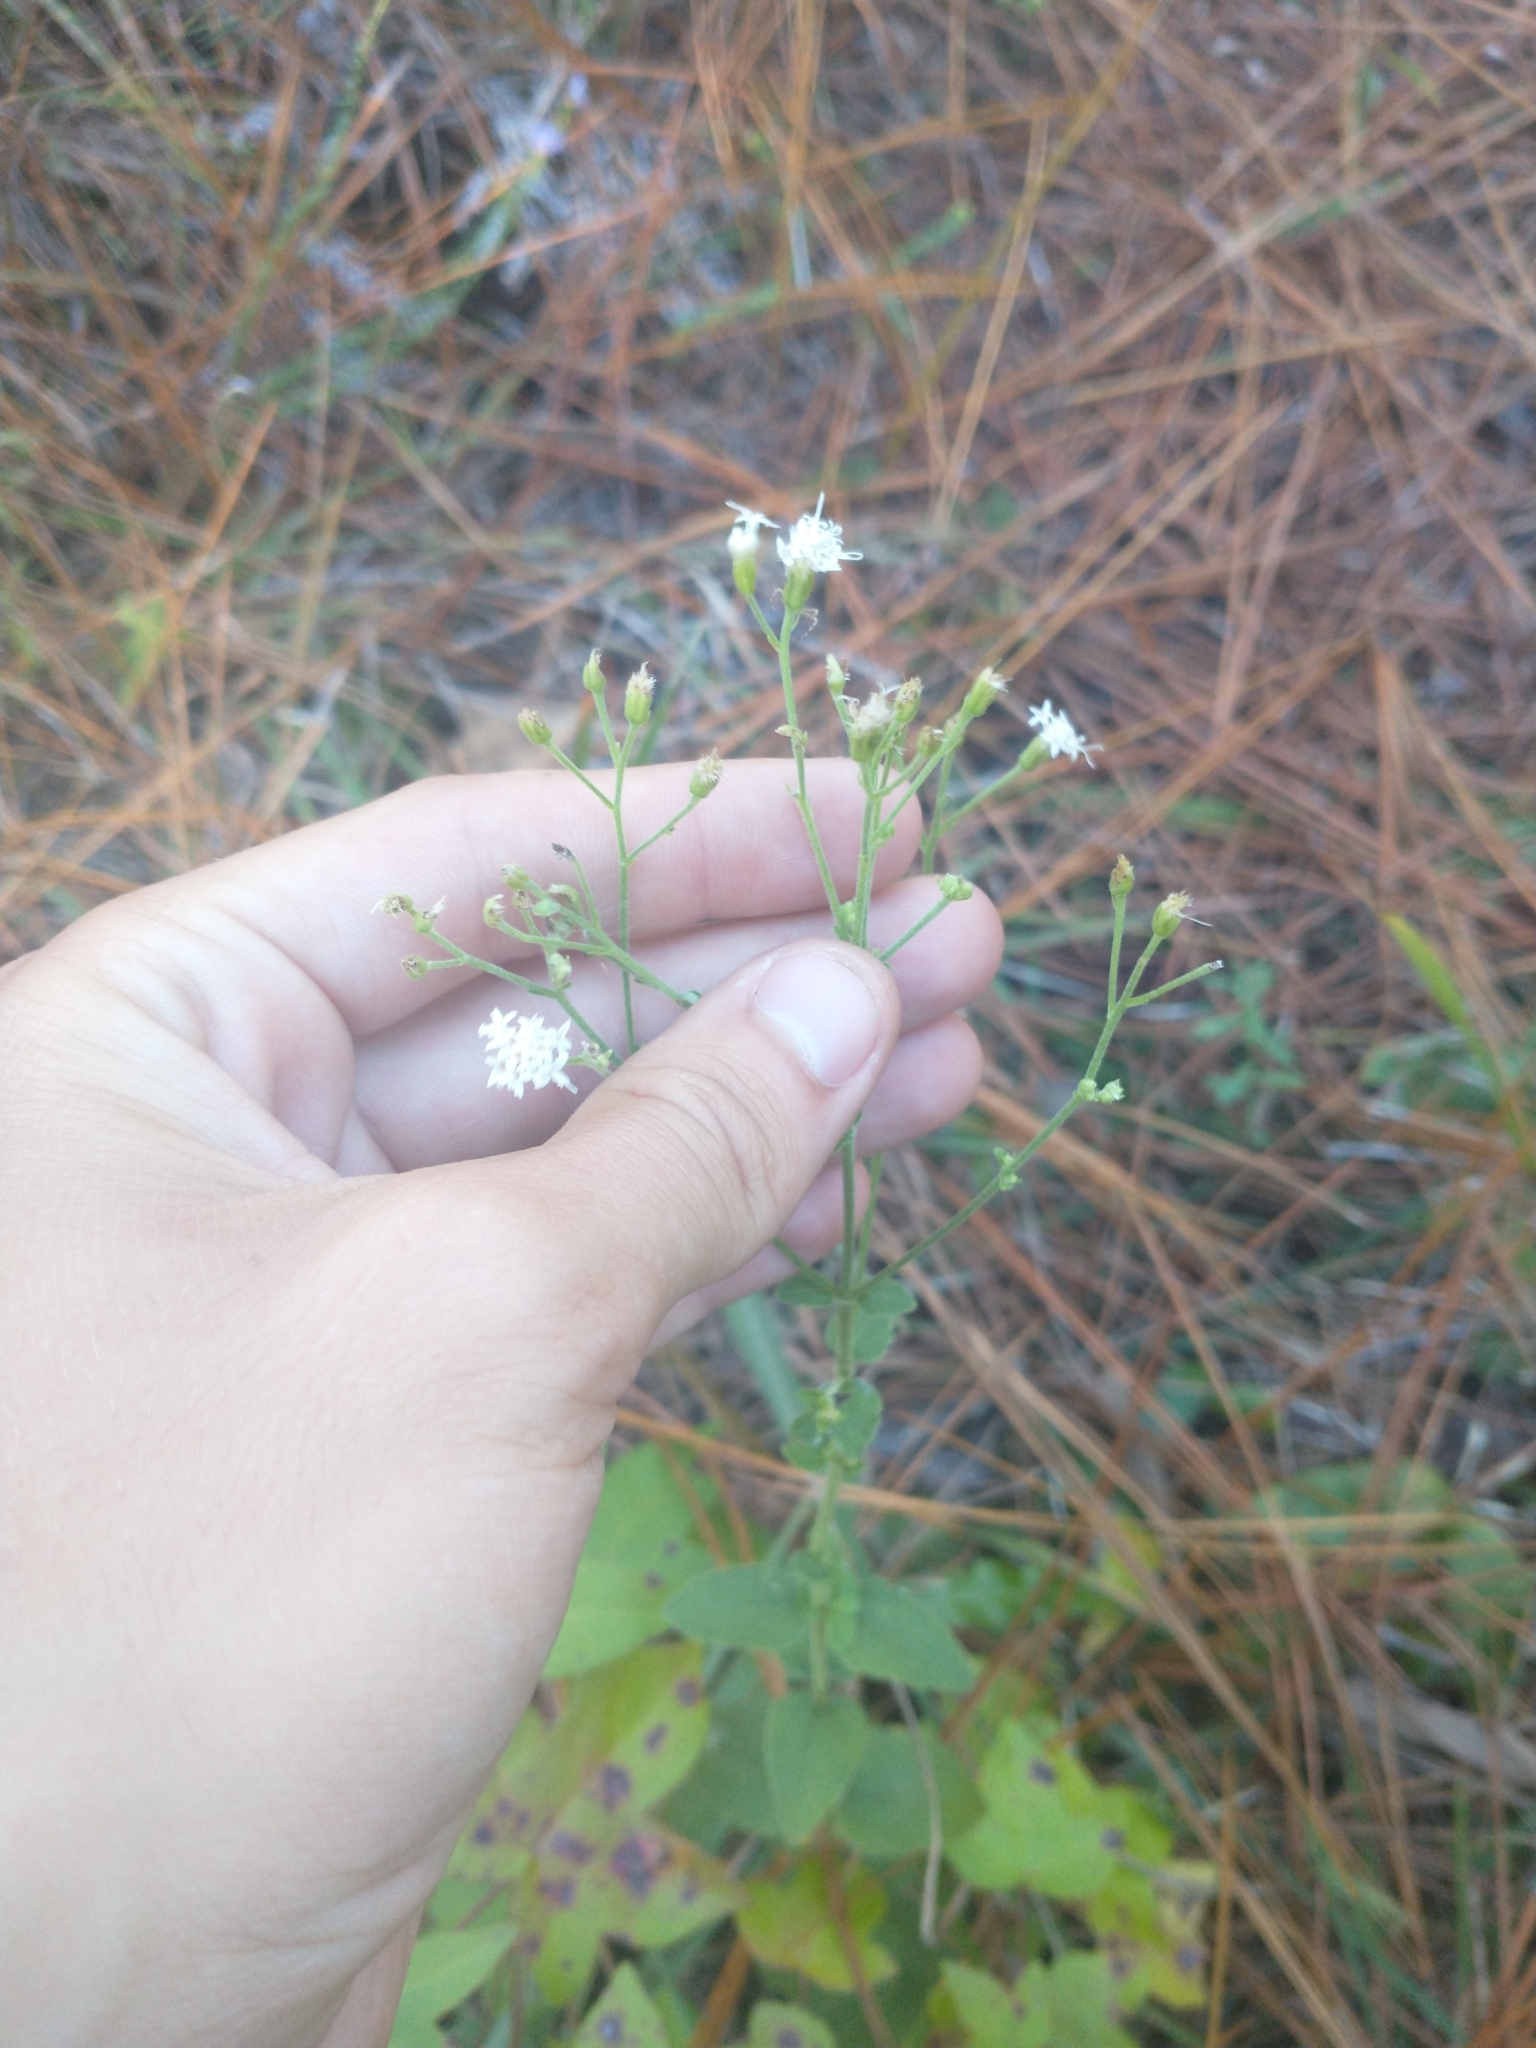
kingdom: Plantae
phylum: Tracheophyta
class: Magnoliopsida
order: Asterales
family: Asteraceae
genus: Ageratina
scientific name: Ageratina aromatica
